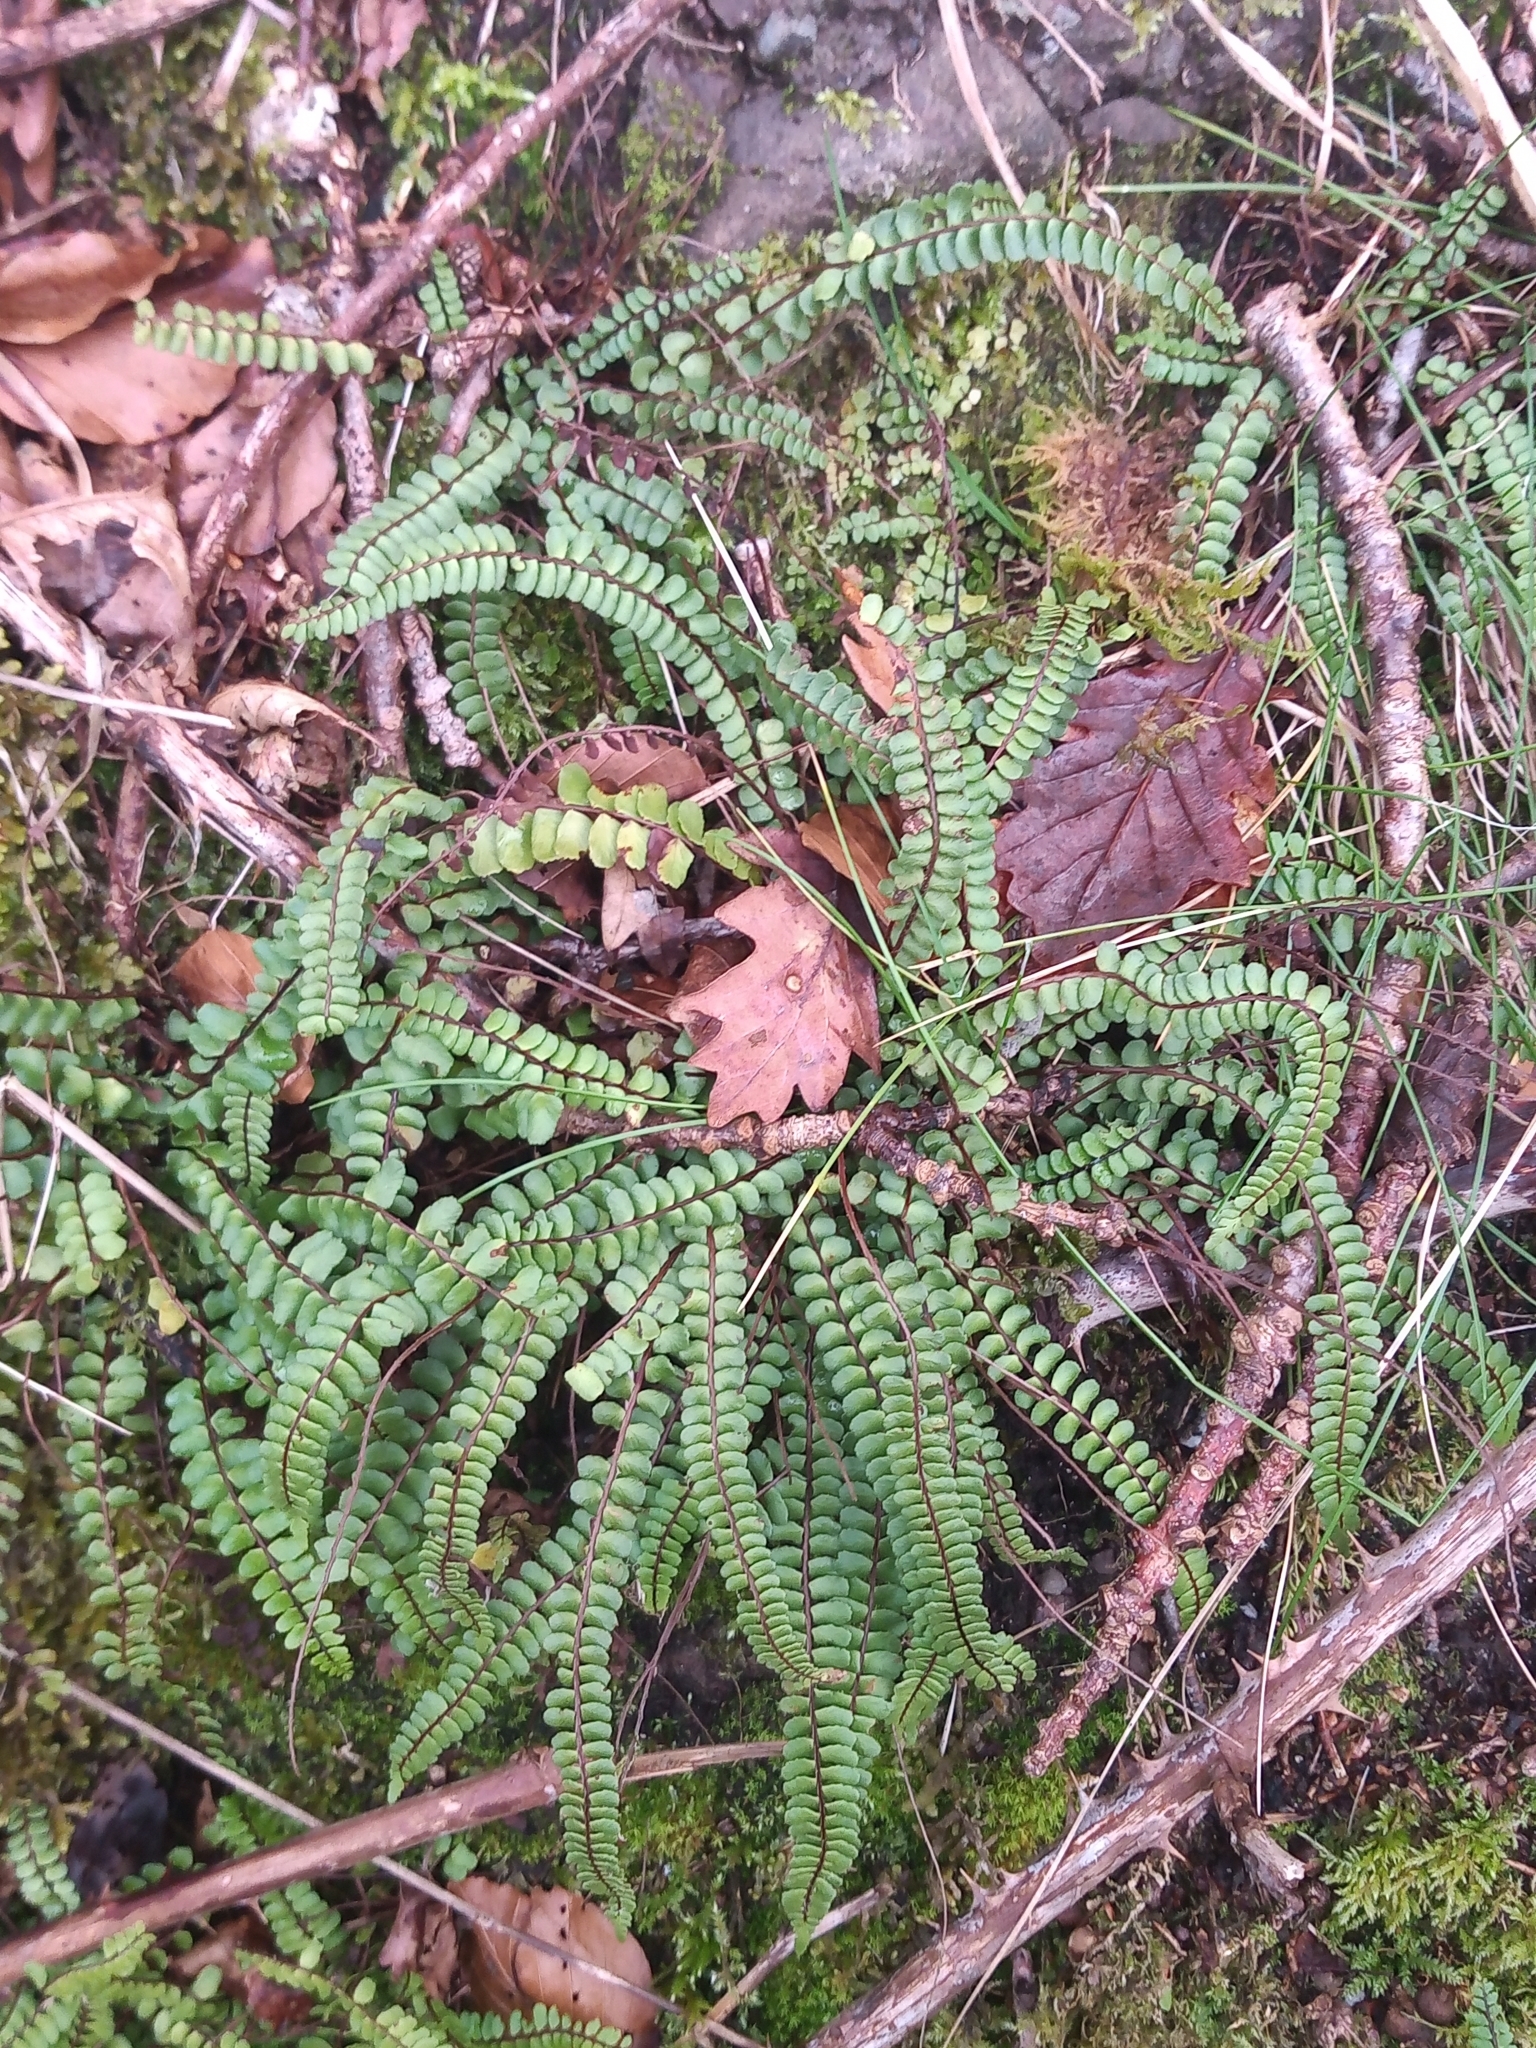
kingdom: Plantae
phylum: Tracheophyta
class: Polypodiopsida
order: Polypodiales
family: Aspleniaceae
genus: Asplenium
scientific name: Asplenium trichomanes
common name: Maidenhair spleenwort
